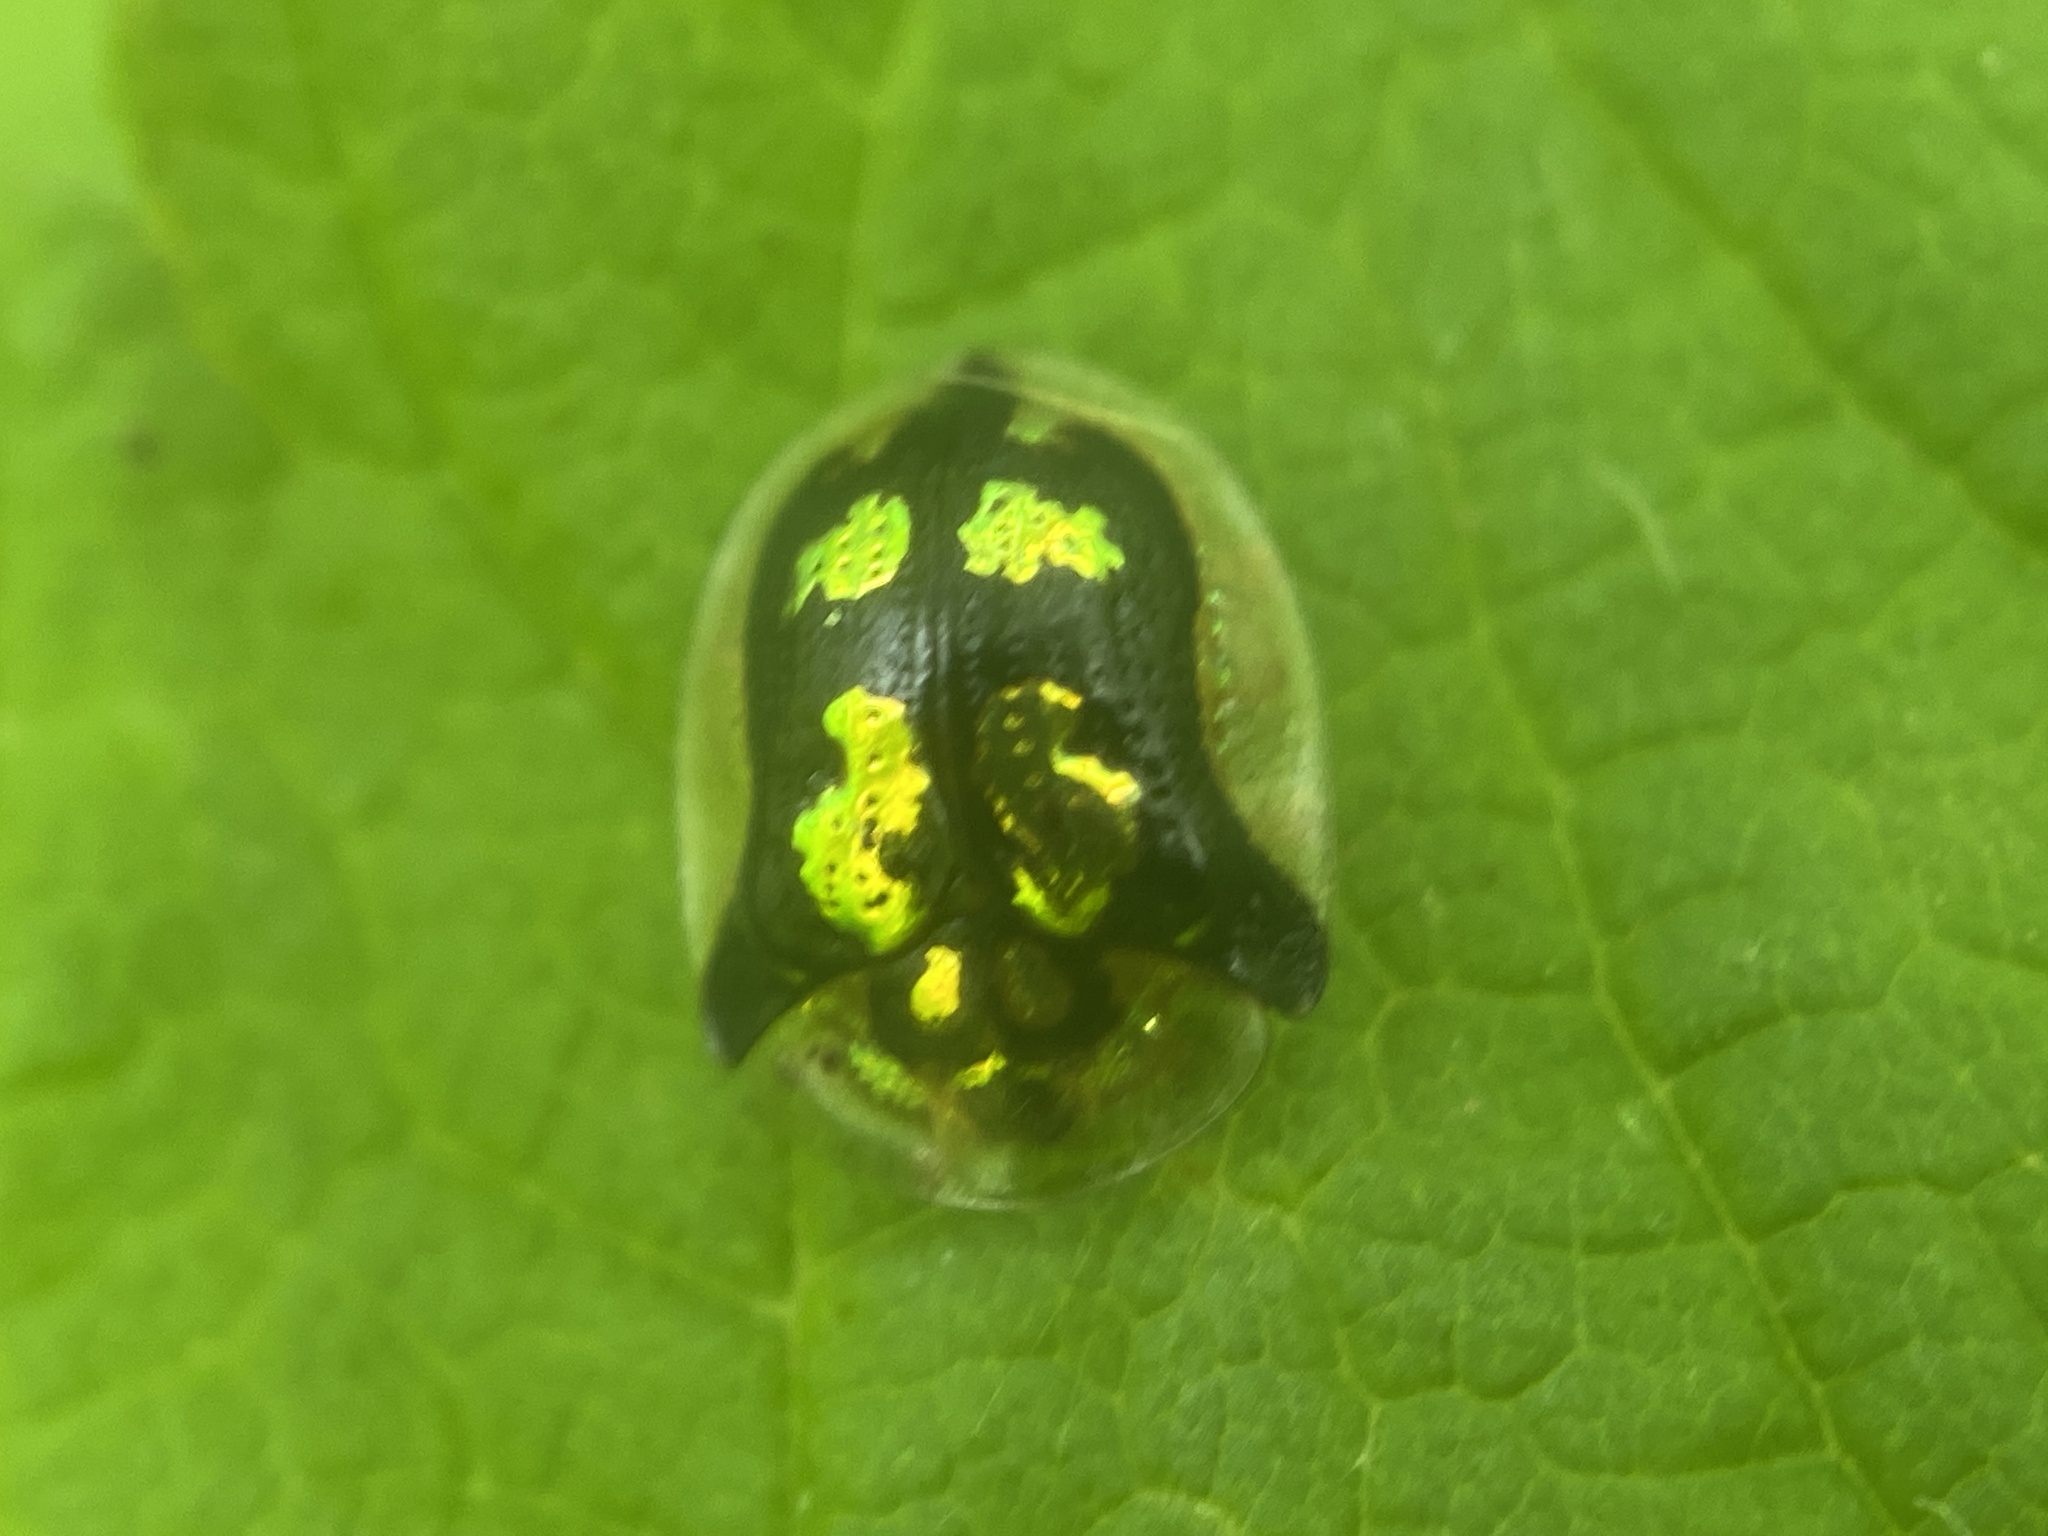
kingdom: Animalia
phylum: Arthropoda
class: Insecta
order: Coleoptera
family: Chrysomelidae
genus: Deloyala
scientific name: Deloyala guttata
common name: Mottled tortoise beetle
